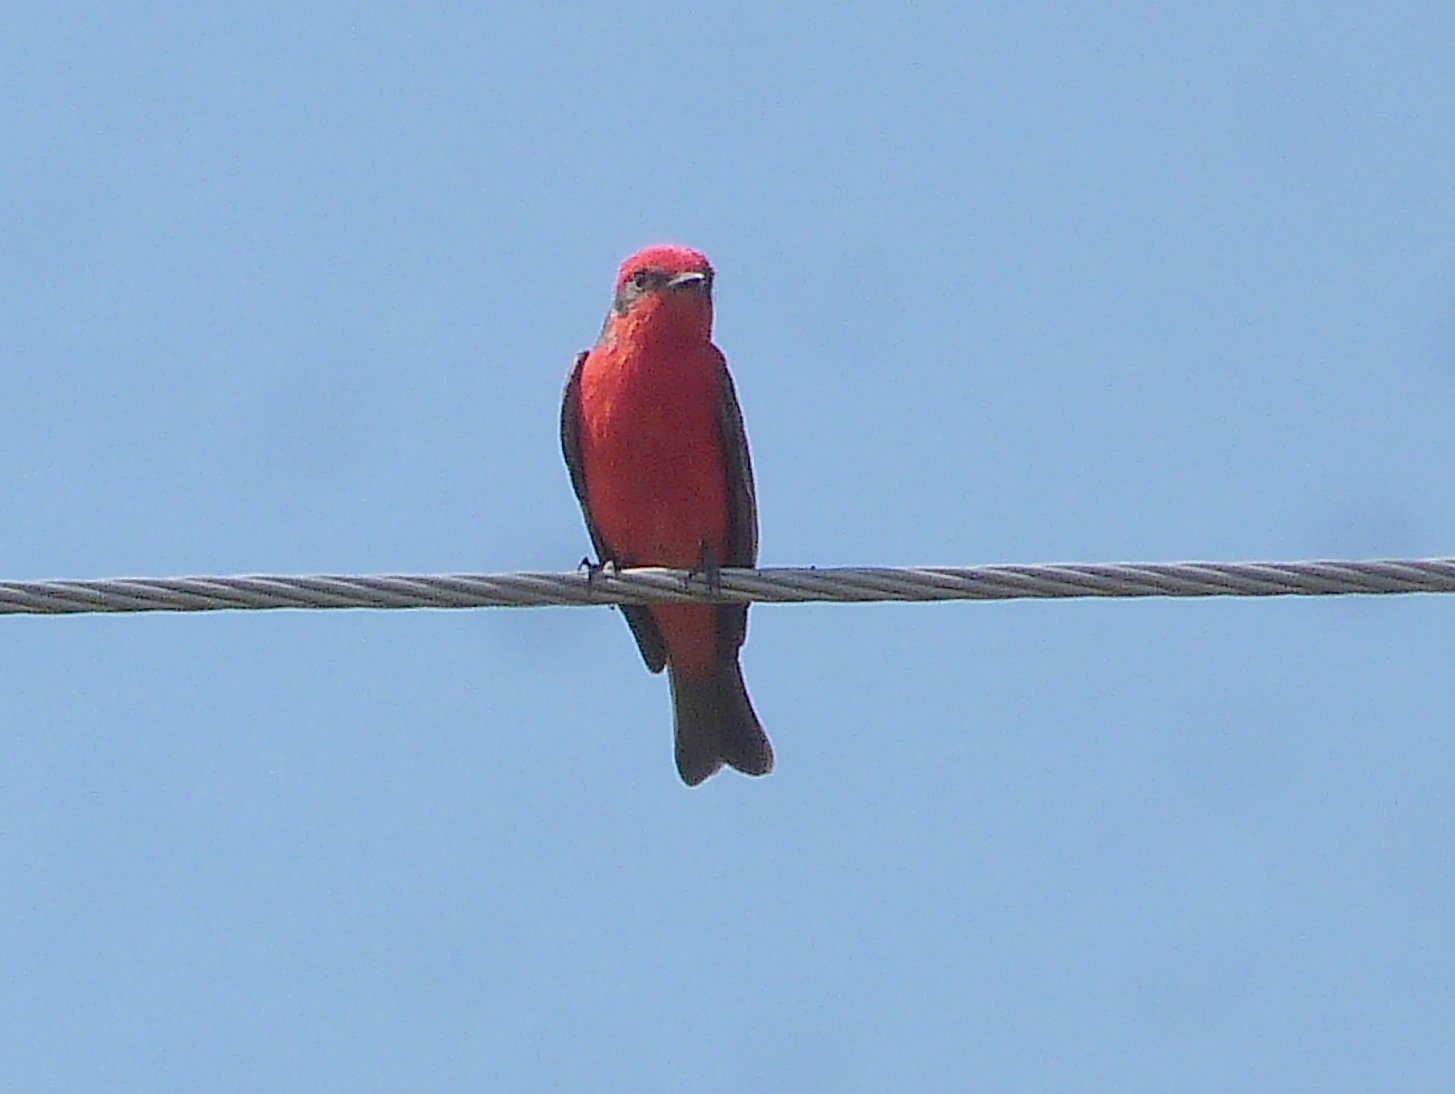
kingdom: Animalia
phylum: Chordata
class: Aves
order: Passeriformes
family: Tyrannidae
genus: Pyrocephalus
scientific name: Pyrocephalus rubinus
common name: Vermilion flycatcher
